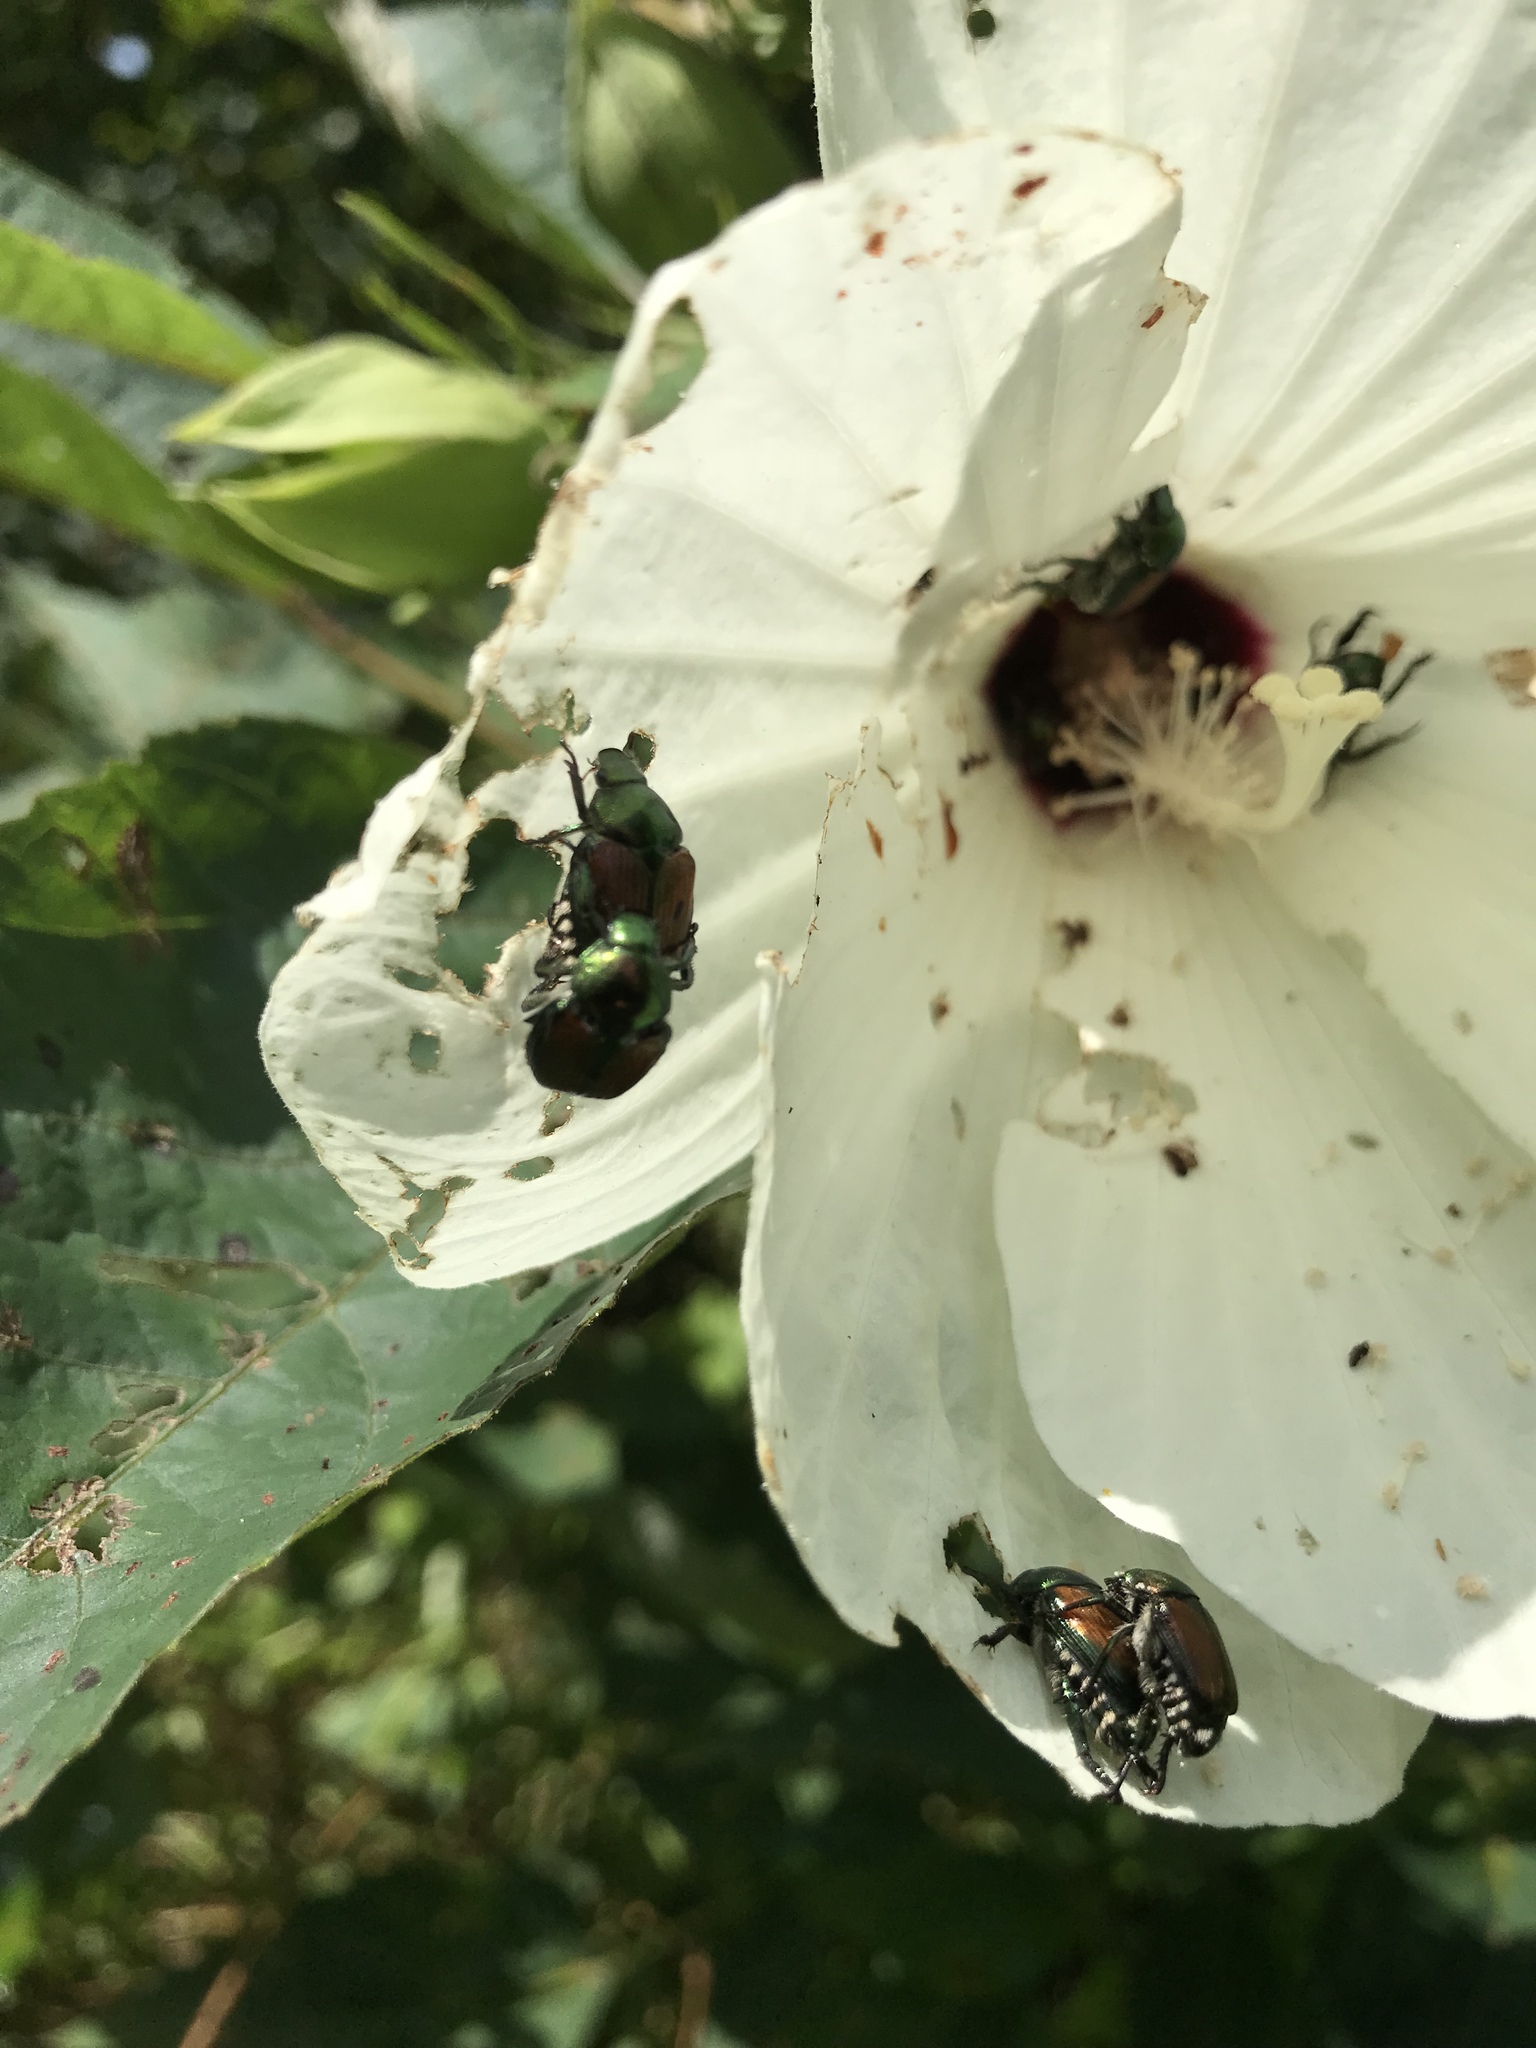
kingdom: Animalia
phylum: Arthropoda
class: Insecta
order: Coleoptera
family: Scarabaeidae
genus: Popillia
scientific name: Popillia japonica
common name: Japanese beetle
